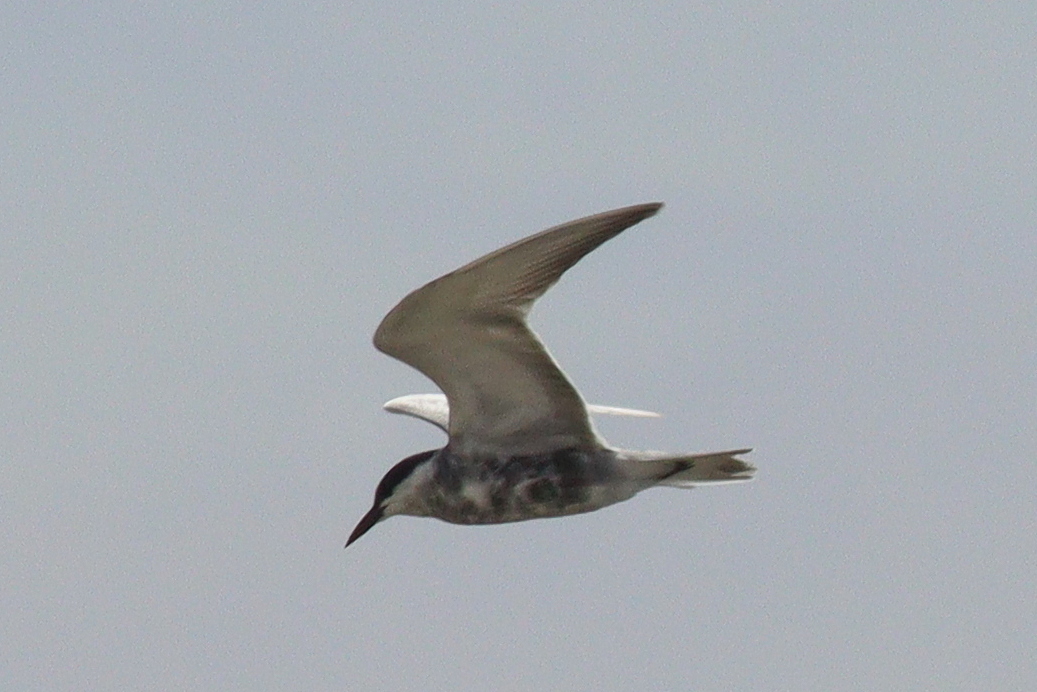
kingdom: Animalia
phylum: Chordata
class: Aves
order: Charadriiformes
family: Laridae
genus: Chlidonias
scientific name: Chlidonias hybrida
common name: Whiskered tern
